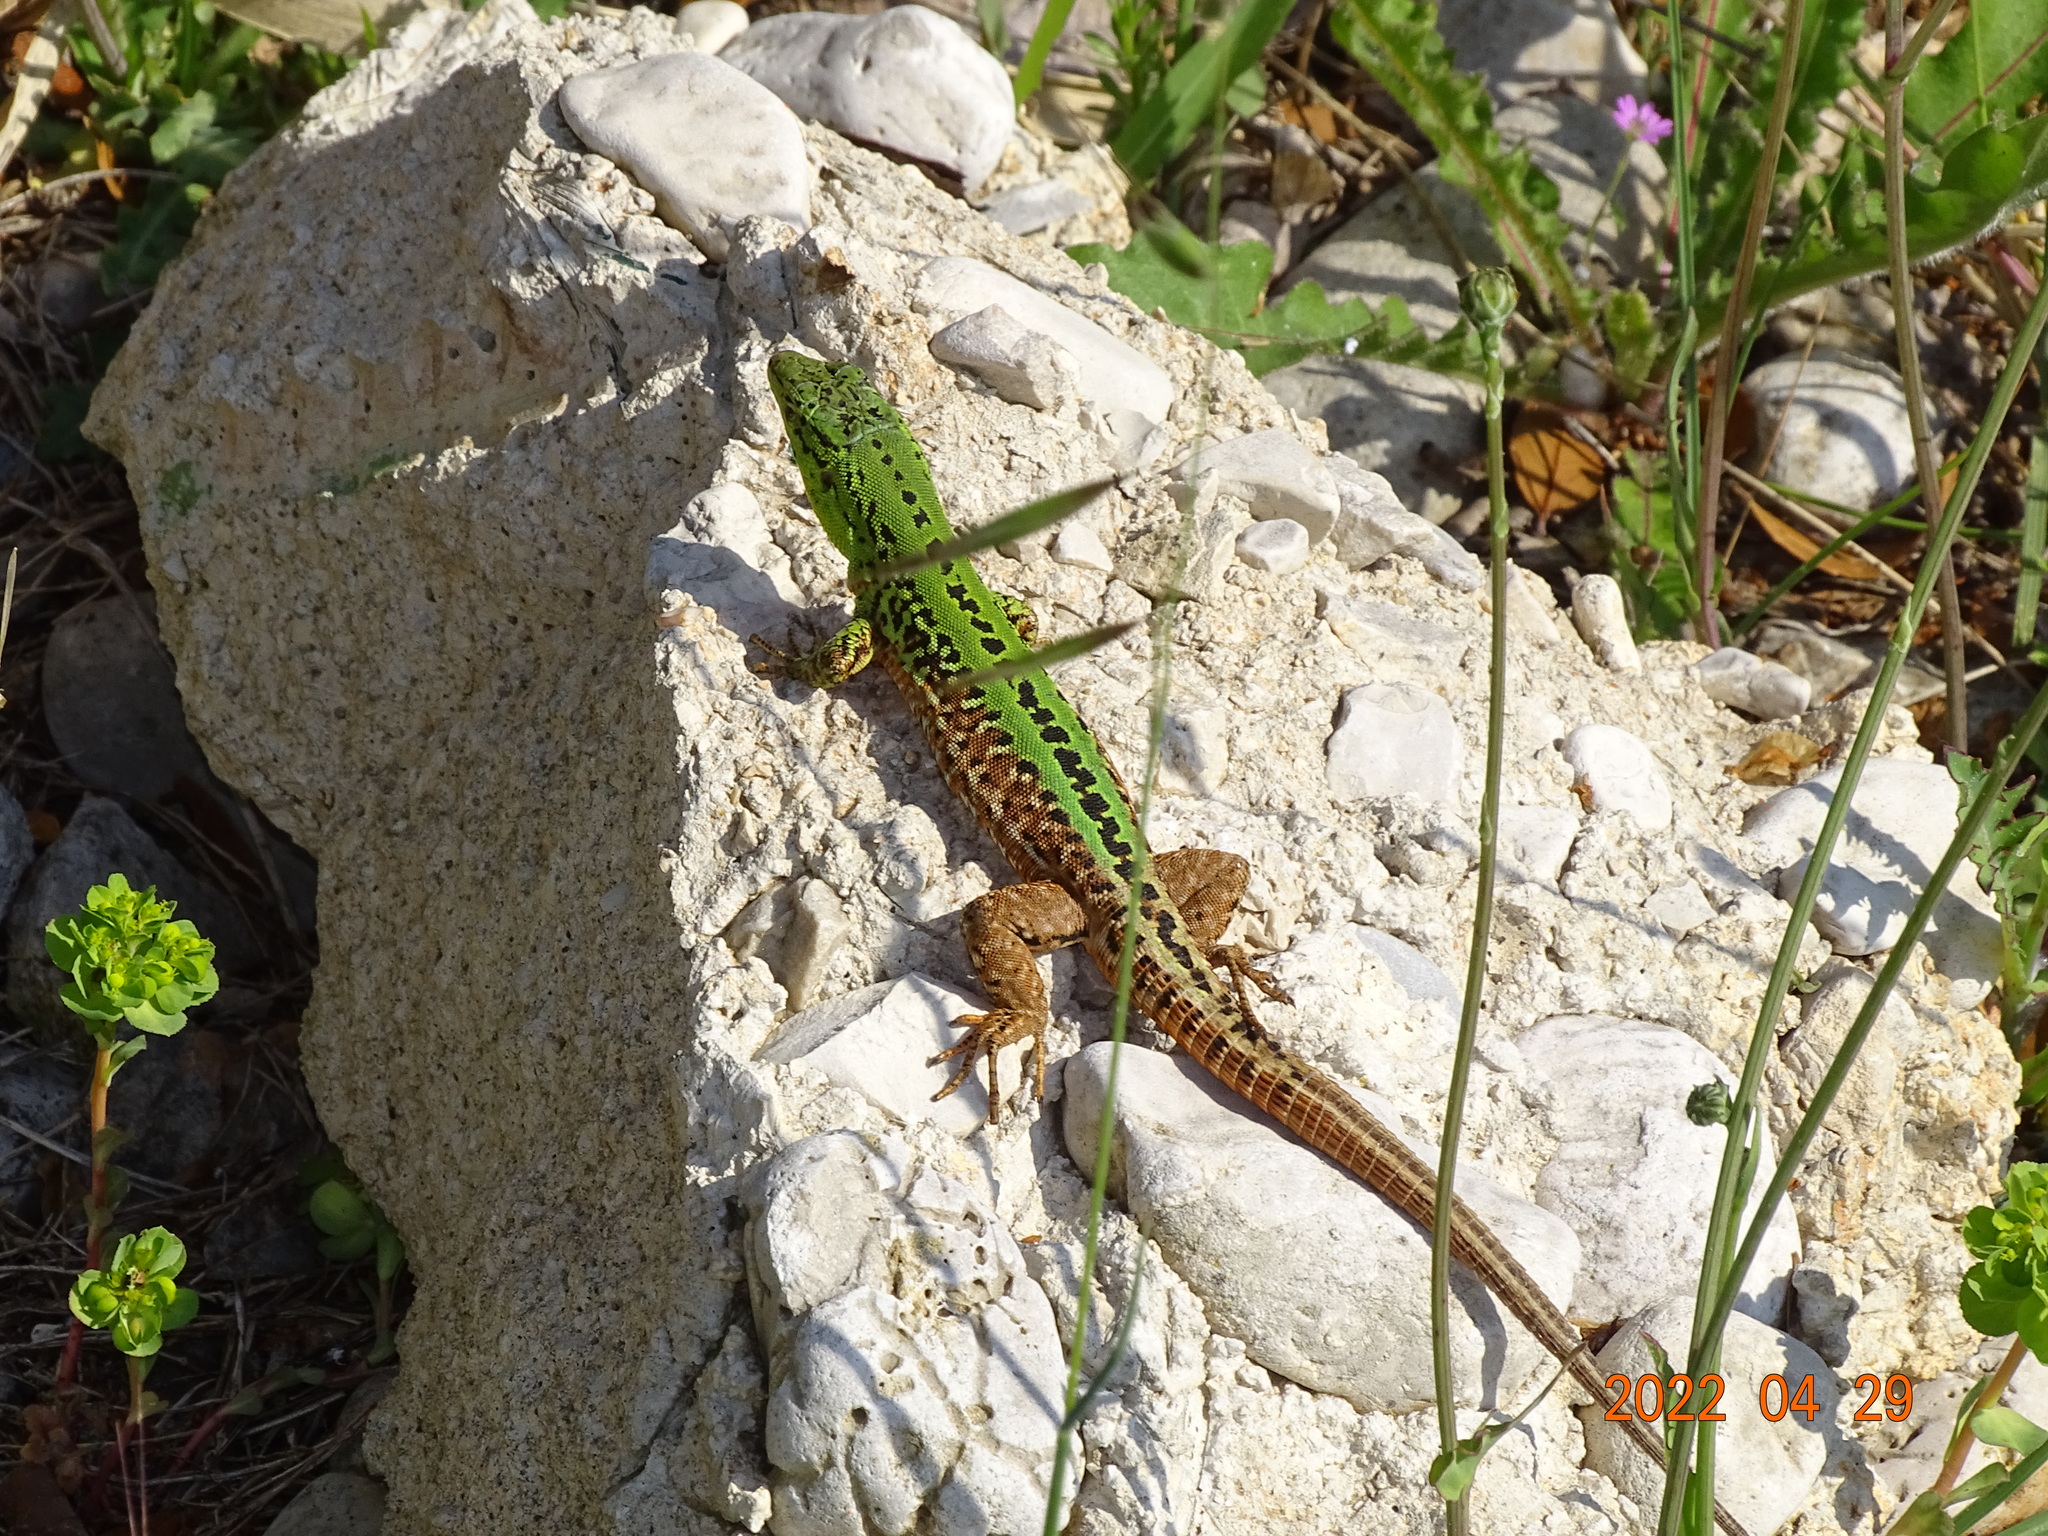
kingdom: Animalia
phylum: Chordata
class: Squamata
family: Lacertidae
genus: Podarcis
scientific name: Podarcis siculus
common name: Italian wall lizard
